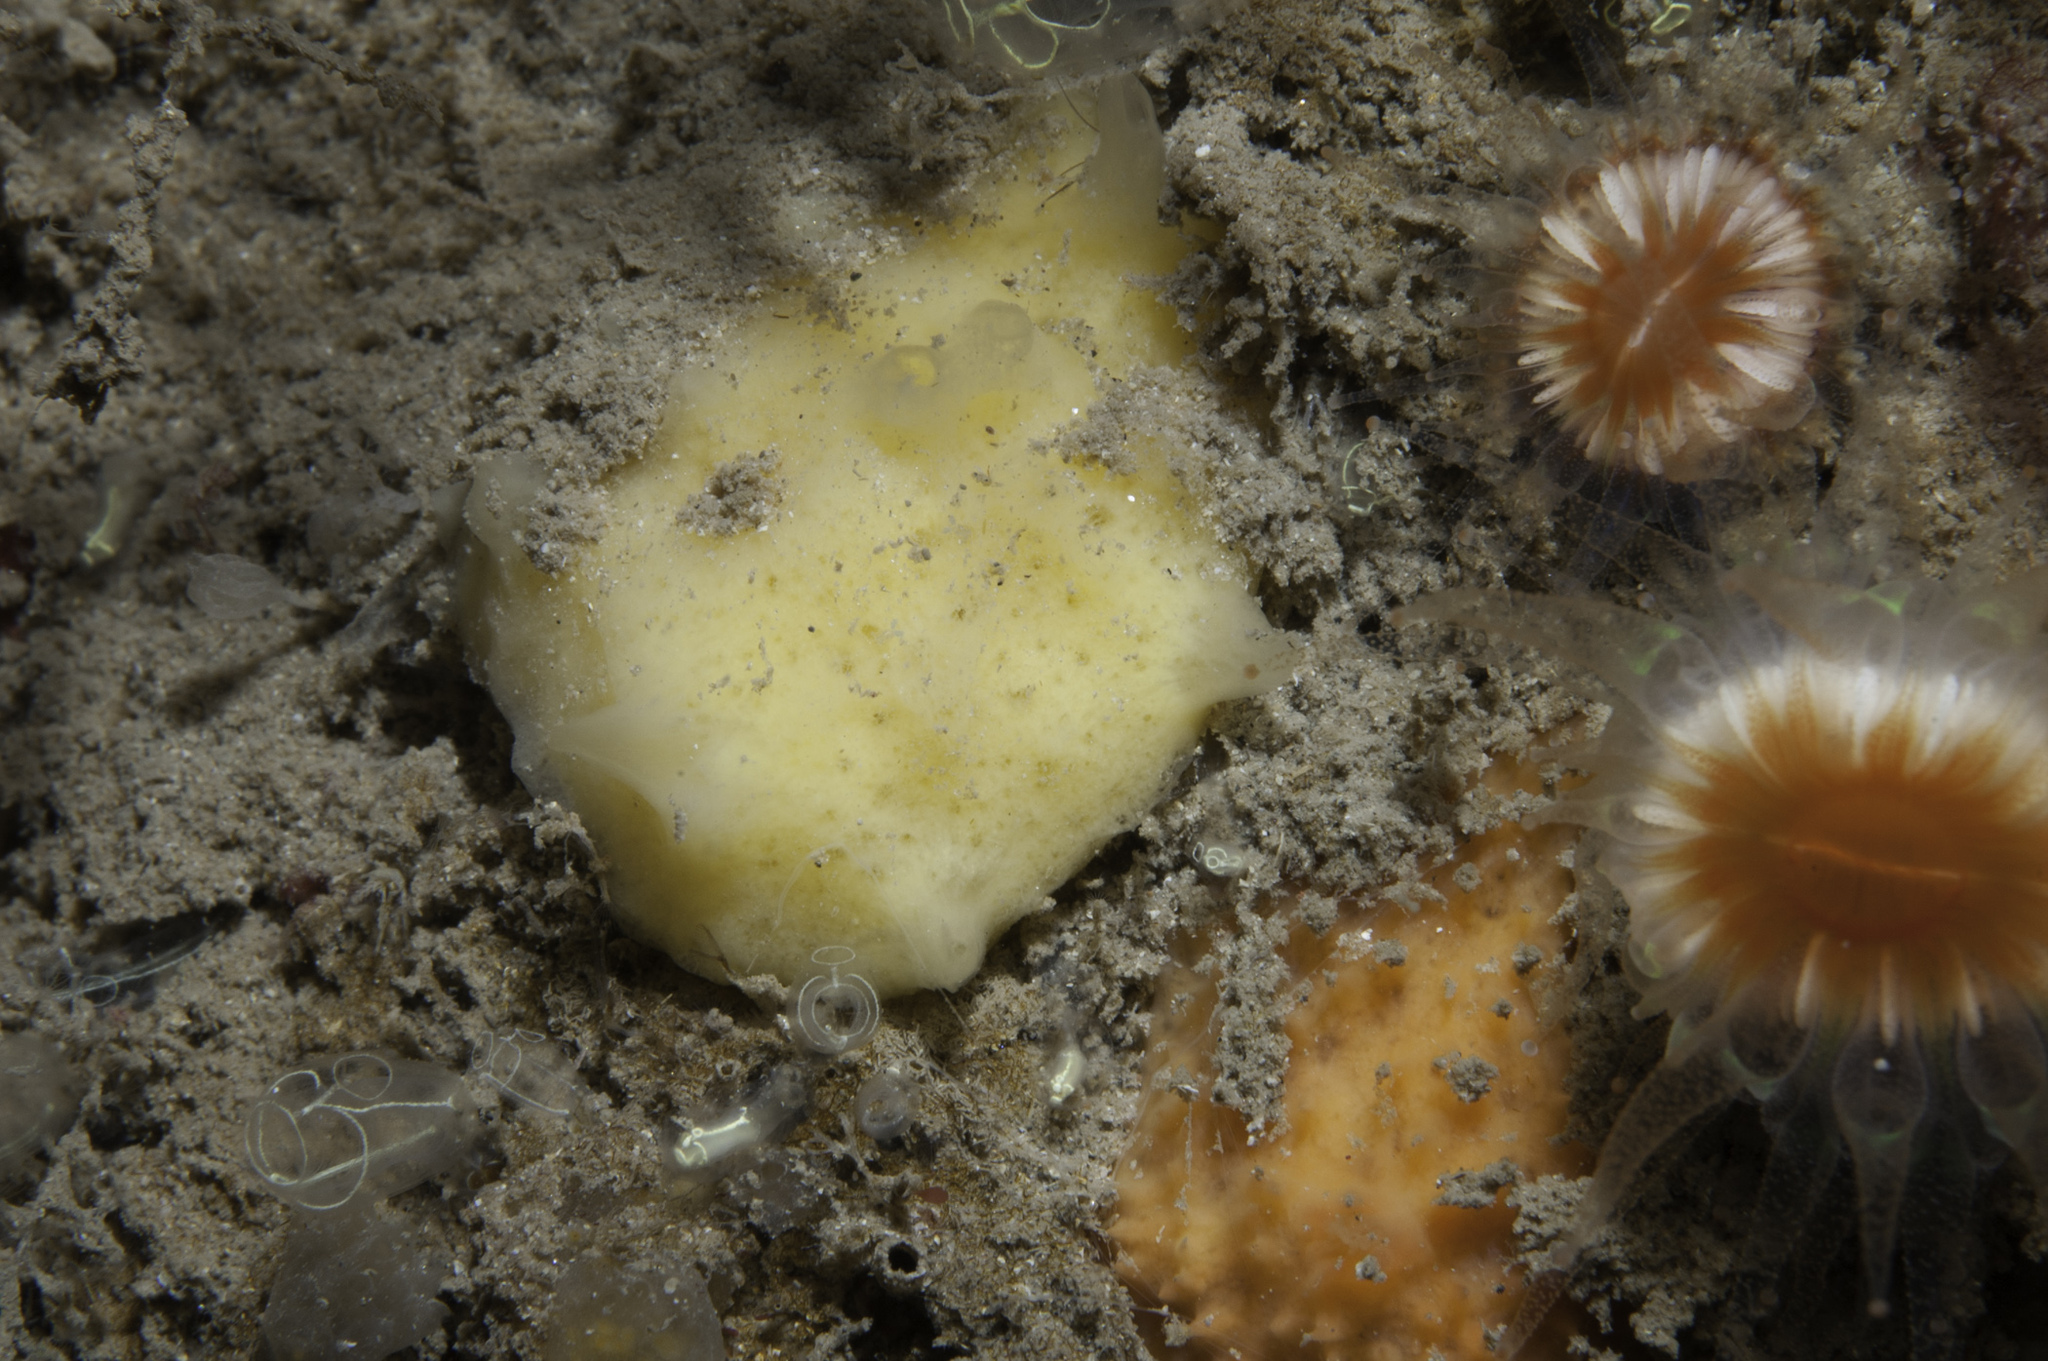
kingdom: Animalia
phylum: Porifera
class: Demospongiae
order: Suberitida
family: Halichondriidae
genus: Hymeniacidon
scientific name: Hymeniacidon simplicima
